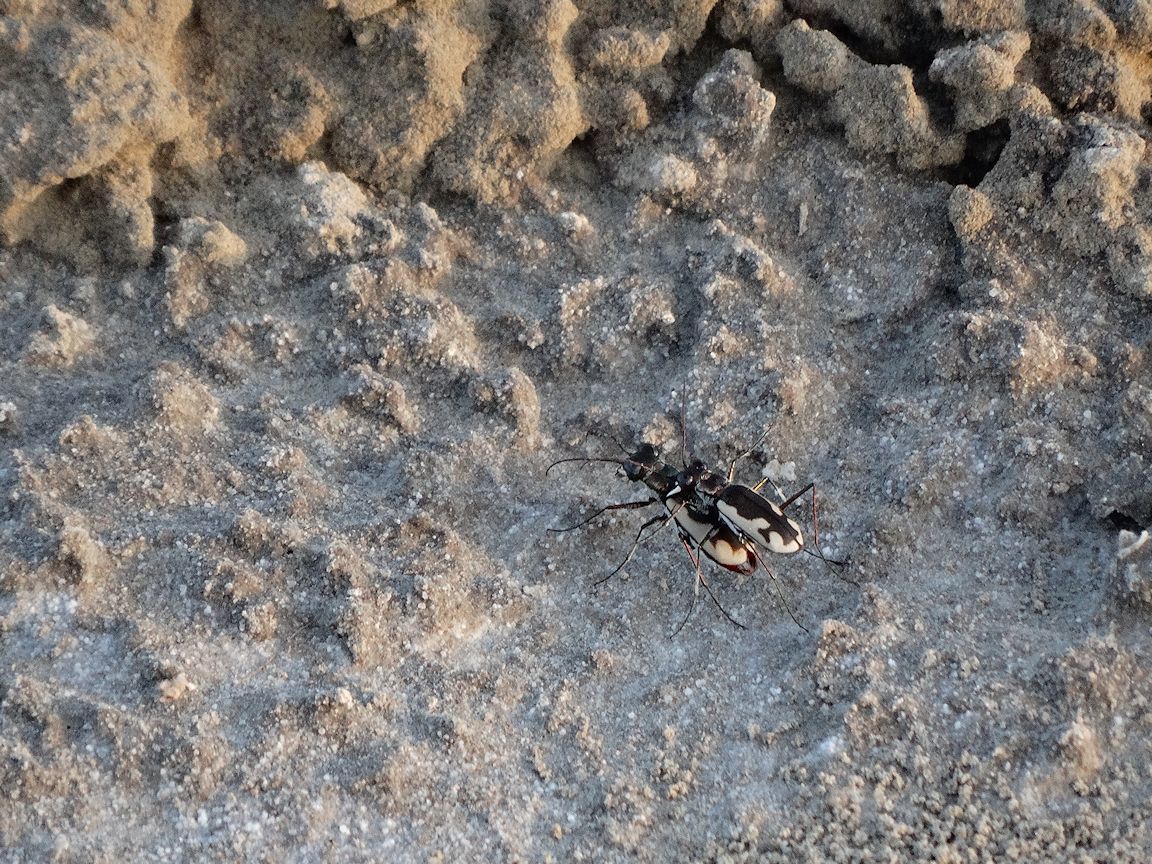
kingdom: Animalia
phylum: Arthropoda
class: Insecta
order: Coleoptera
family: Carabidae
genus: Eunota
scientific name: Eunota californica
